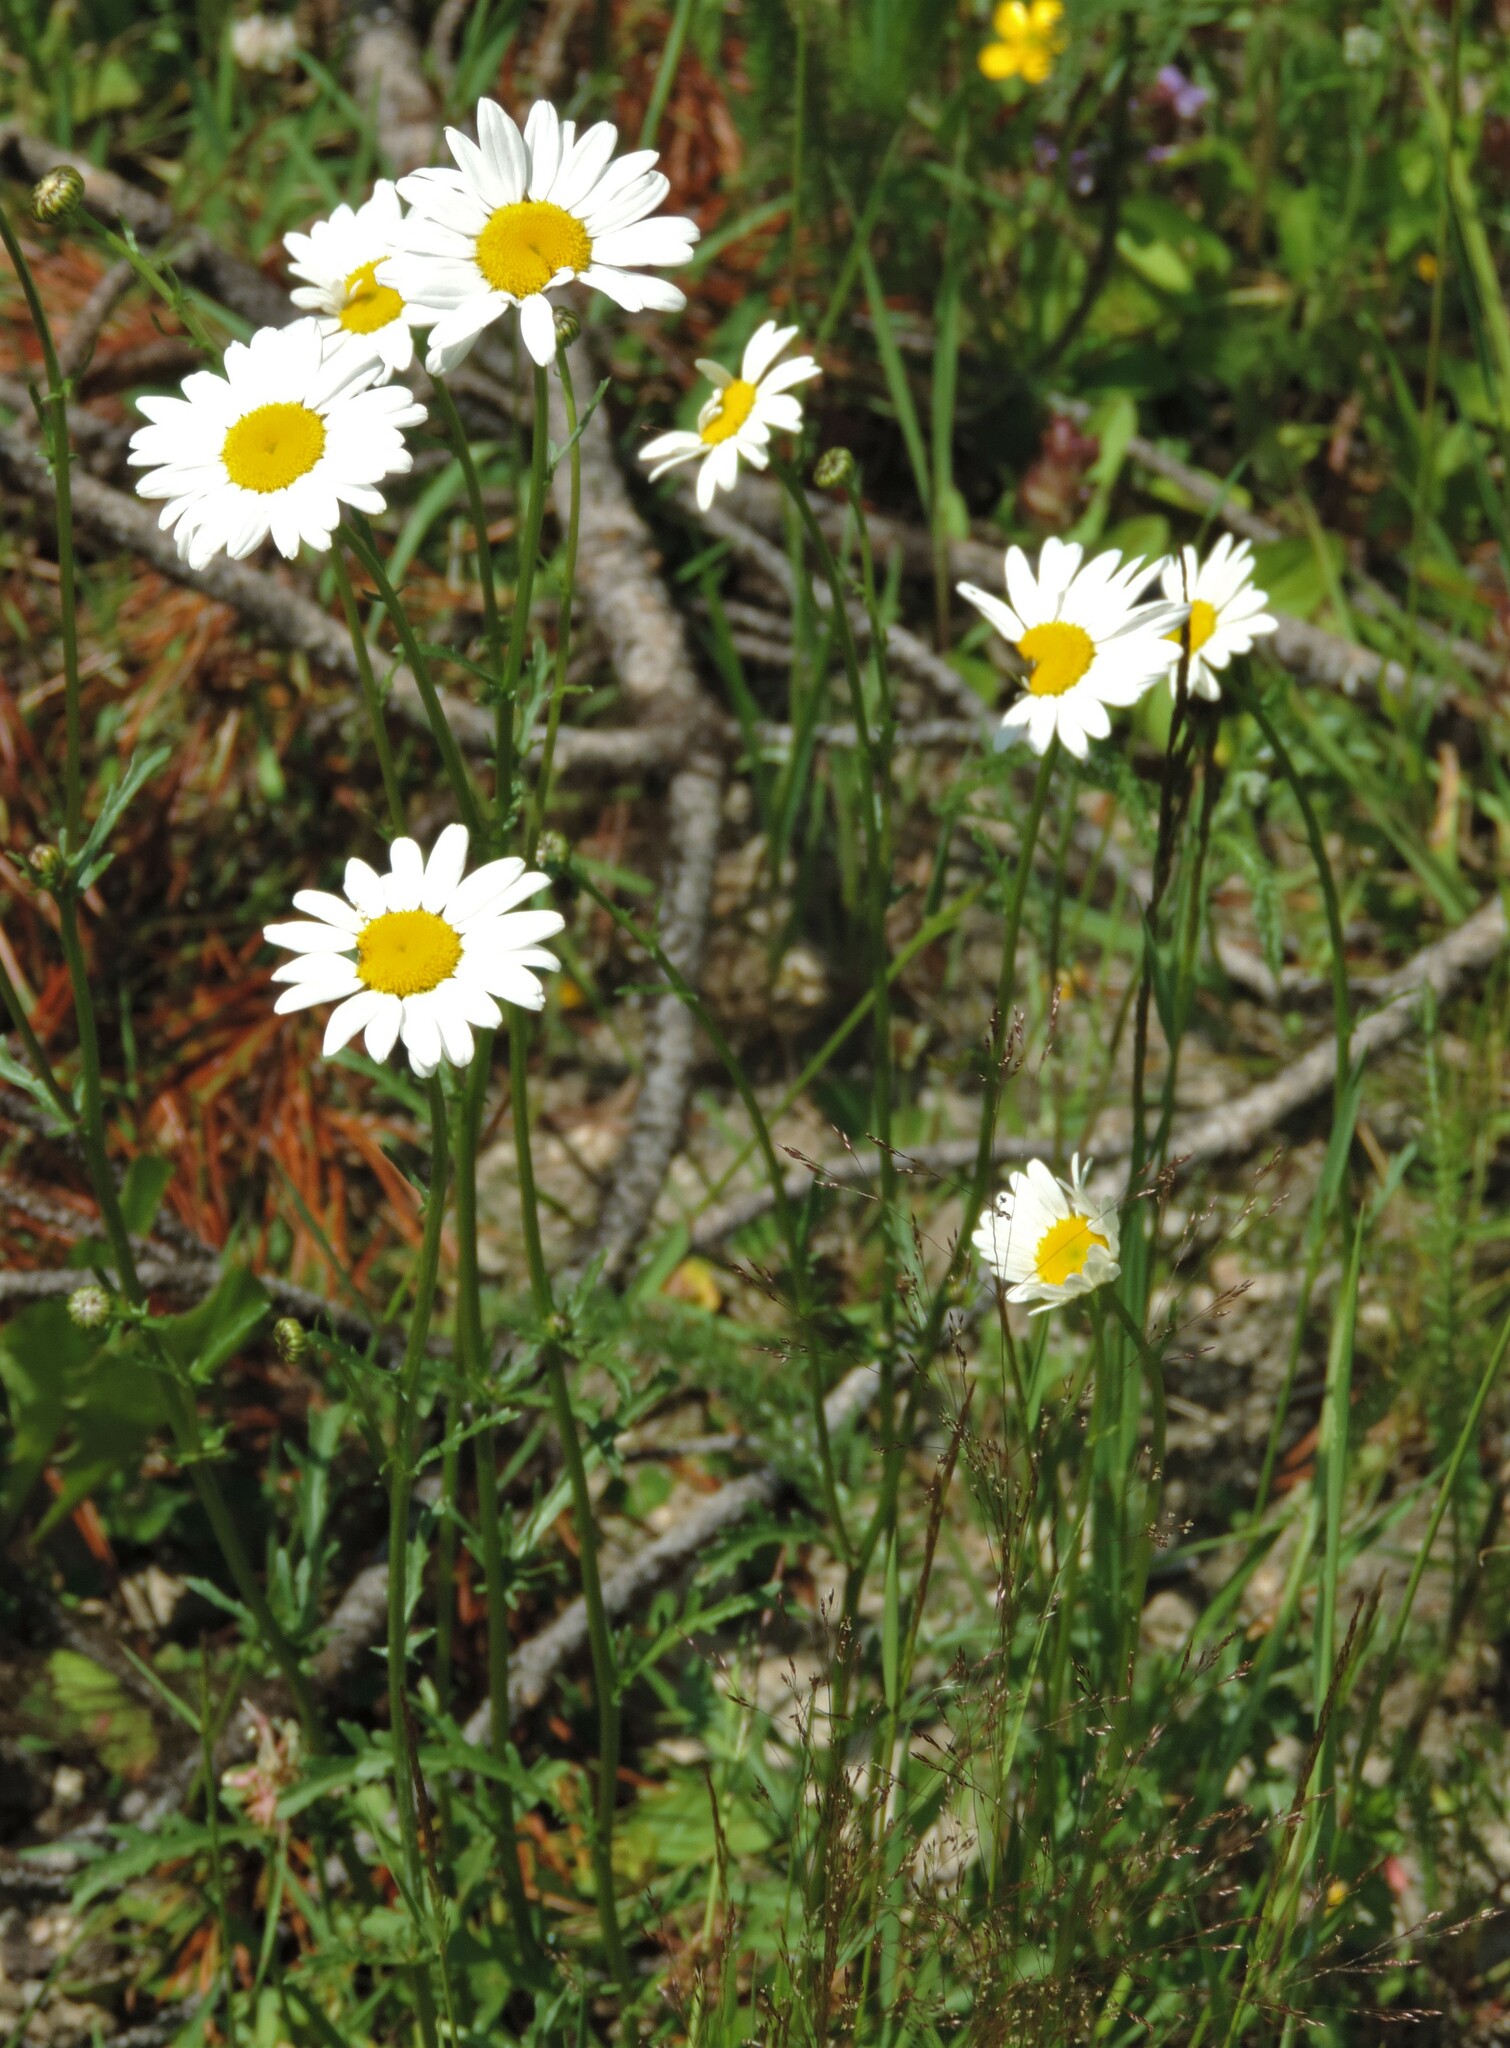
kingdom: Plantae
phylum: Tracheophyta
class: Magnoliopsida
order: Asterales
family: Asteraceae
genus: Leucanthemum
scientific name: Leucanthemum vulgare
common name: Oxeye daisy
